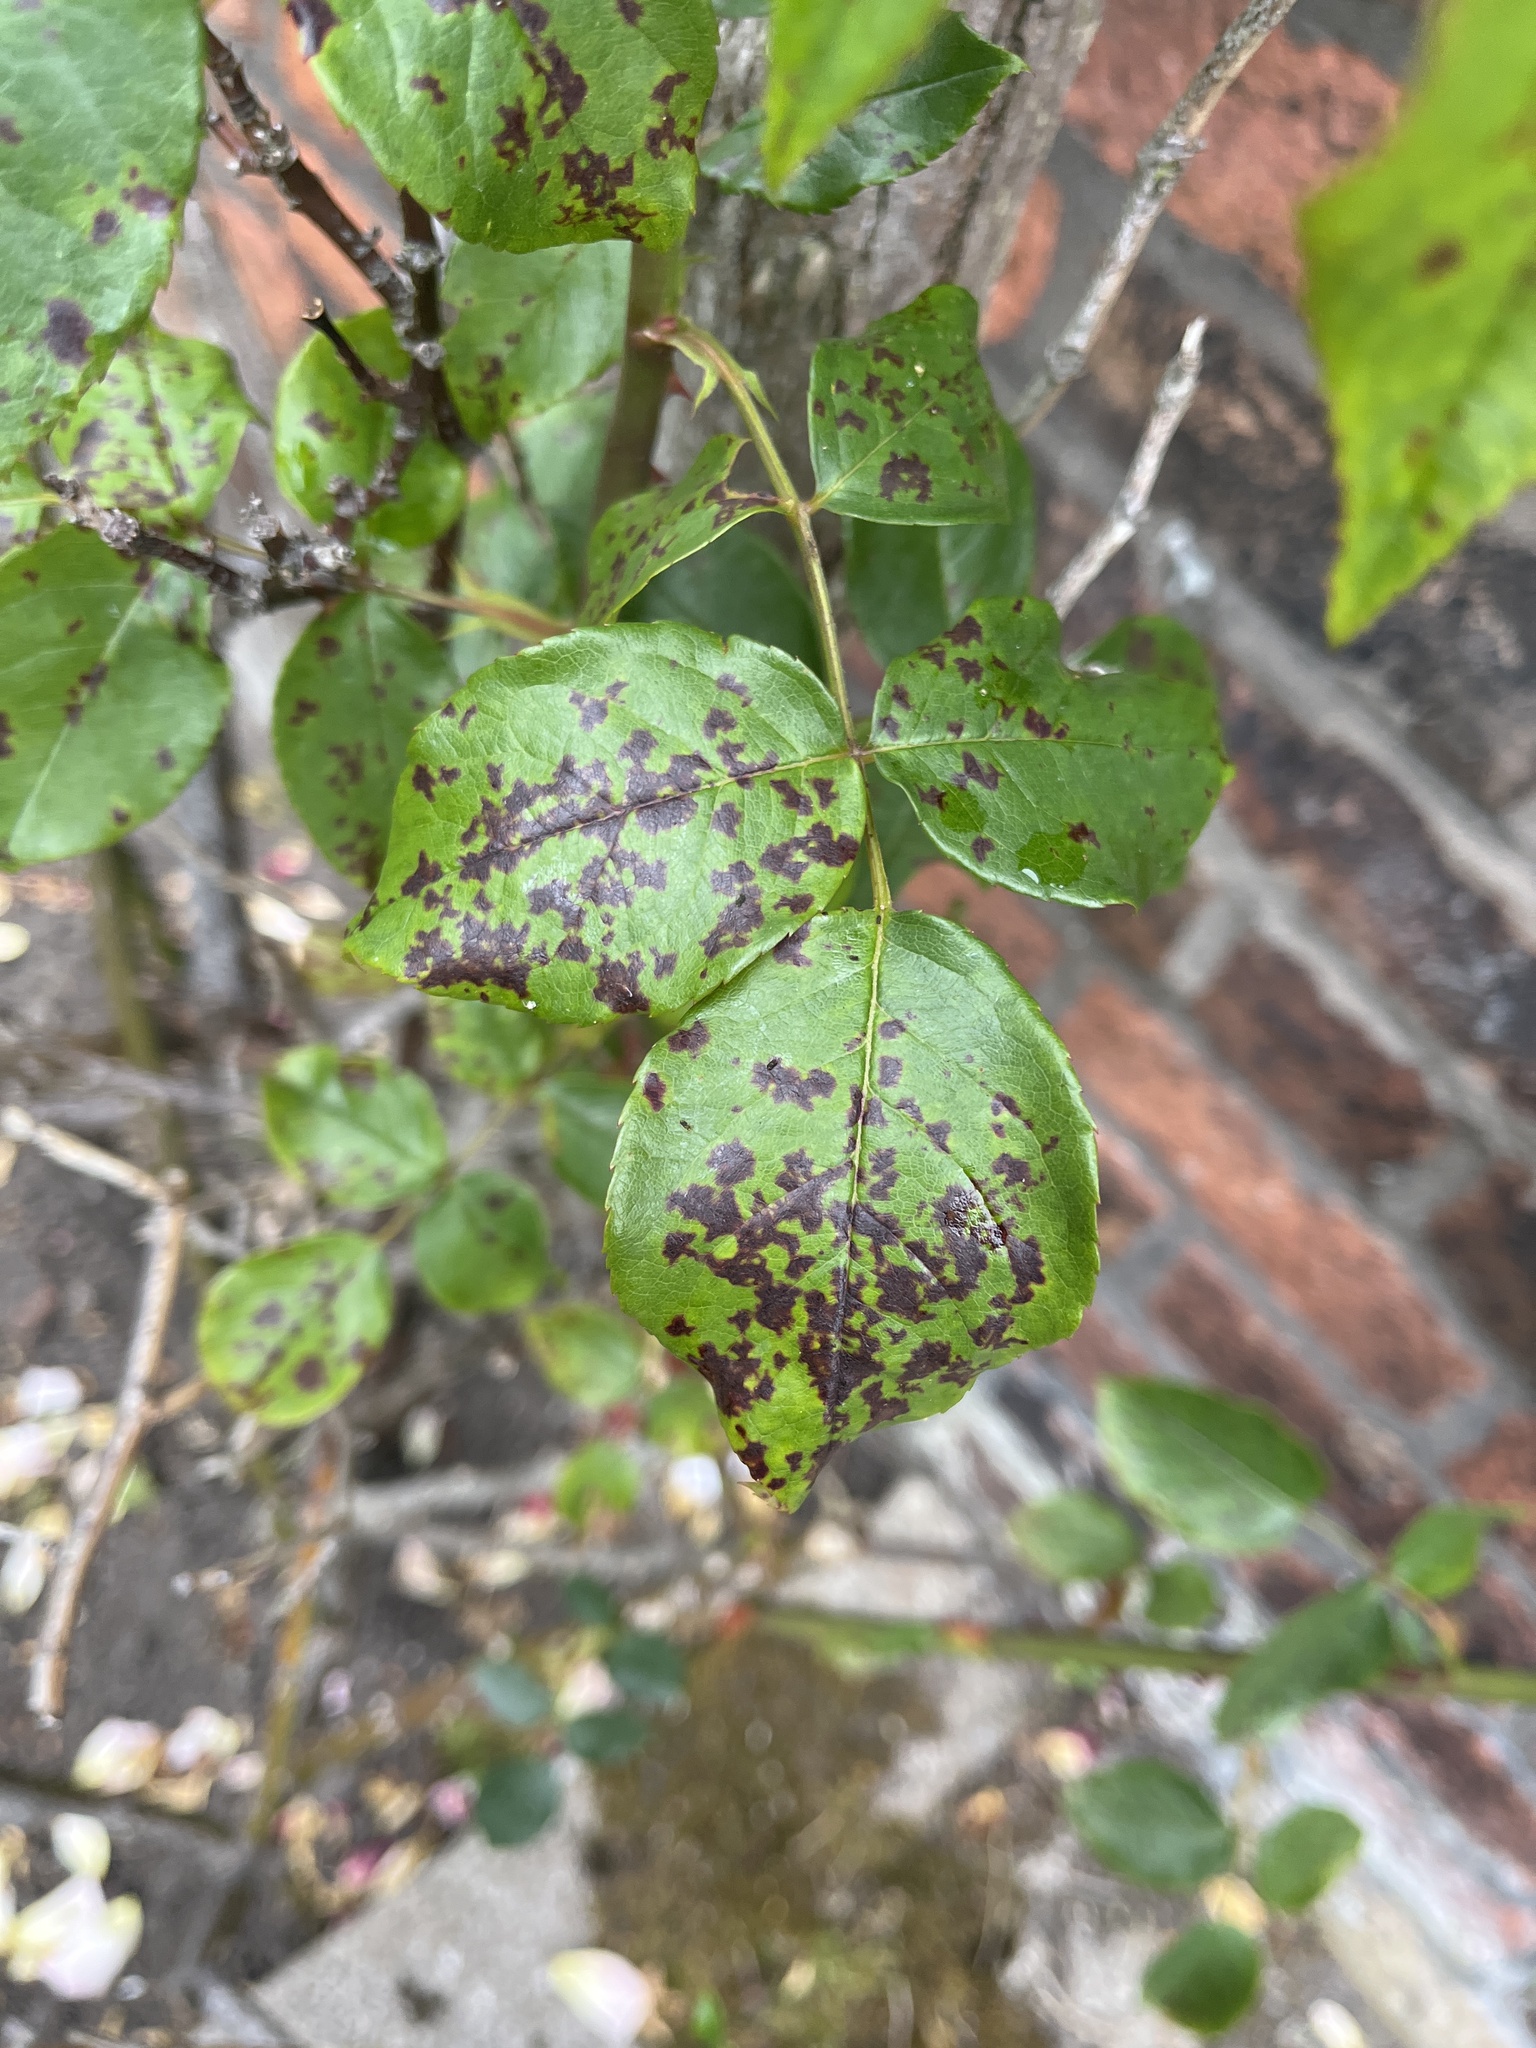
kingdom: Fungi
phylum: Ascomycota
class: Leotiomycetes
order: Helotiales
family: Drepanopezizaceae
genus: Diplocarpon
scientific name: Diplocarpon rosae
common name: Rose black-spot
